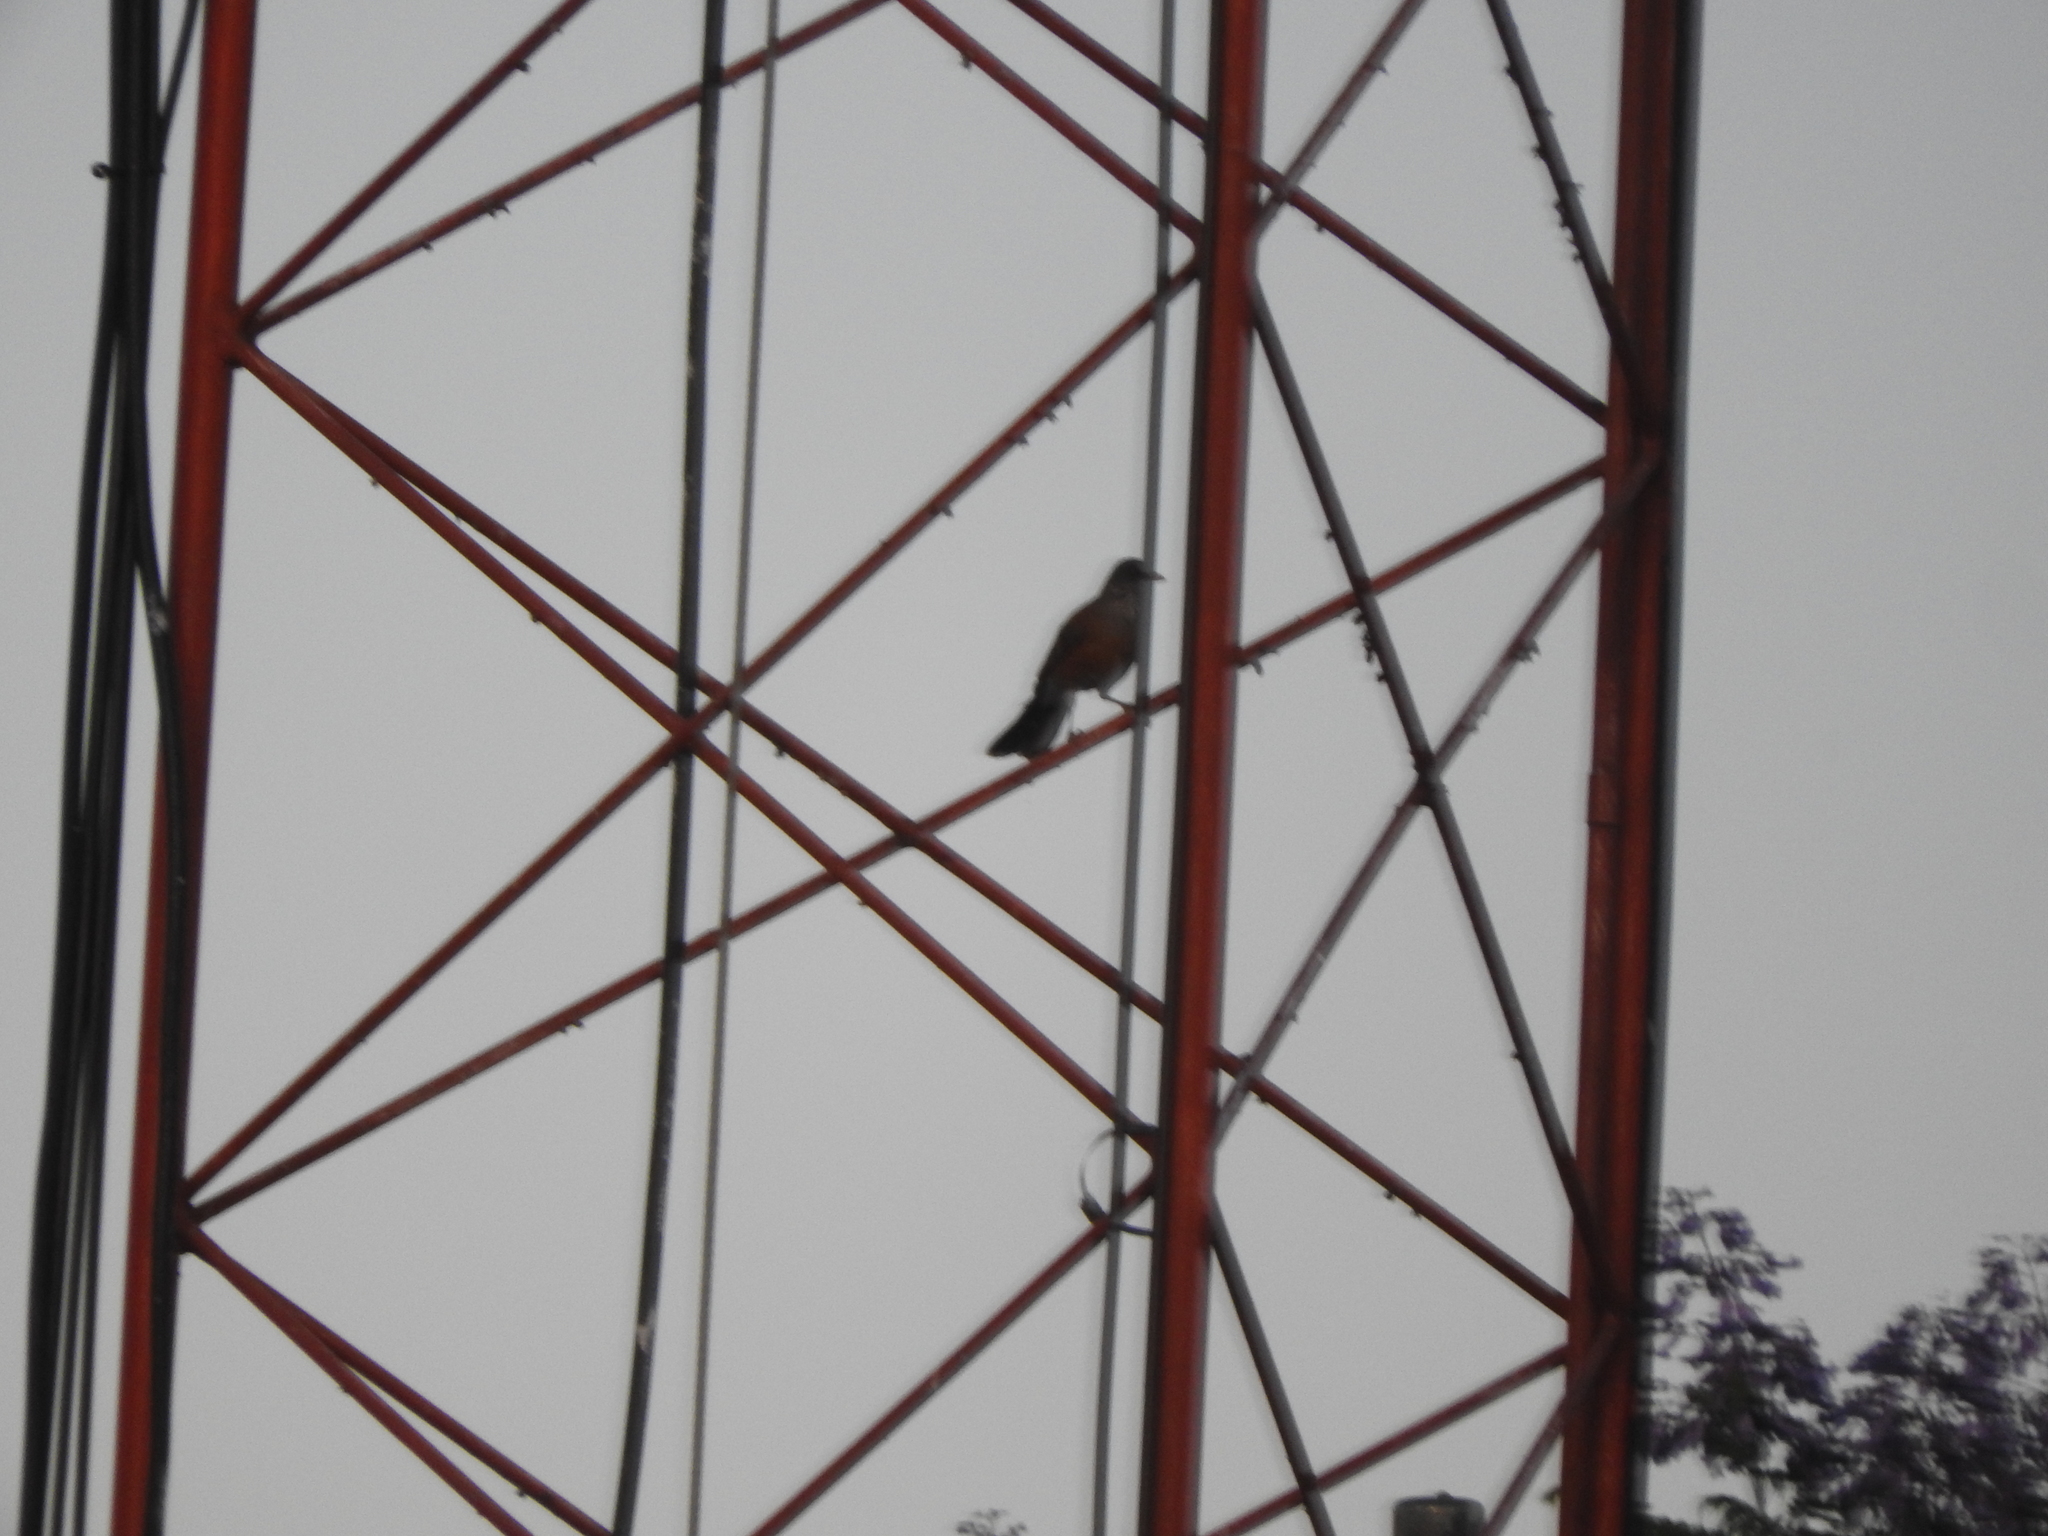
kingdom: Animalia
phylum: Chordata
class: Aves
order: Passeriformes
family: Turdidae
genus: Turdus
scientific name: Turdus rufopalliatus
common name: Rufous-backed robin
